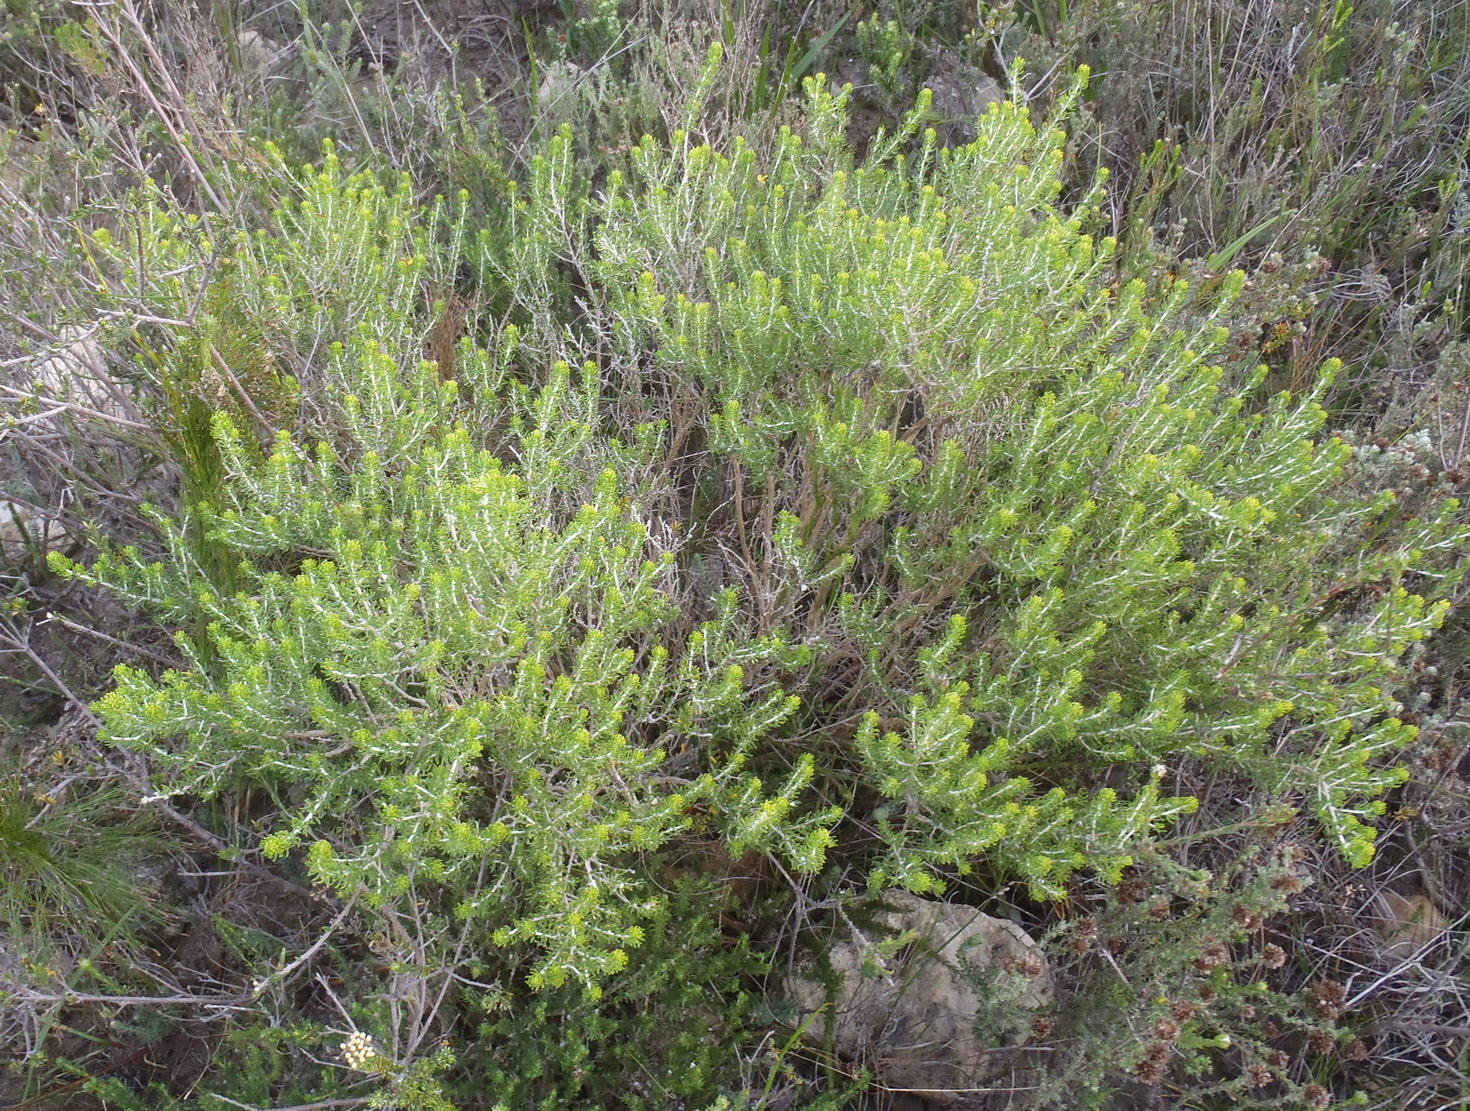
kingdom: Plantae
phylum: Tracheophyta
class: Magnoliopsida
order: Fabales
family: Fabaceae
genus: Aspalathus
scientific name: Aspalathus sanguinea
